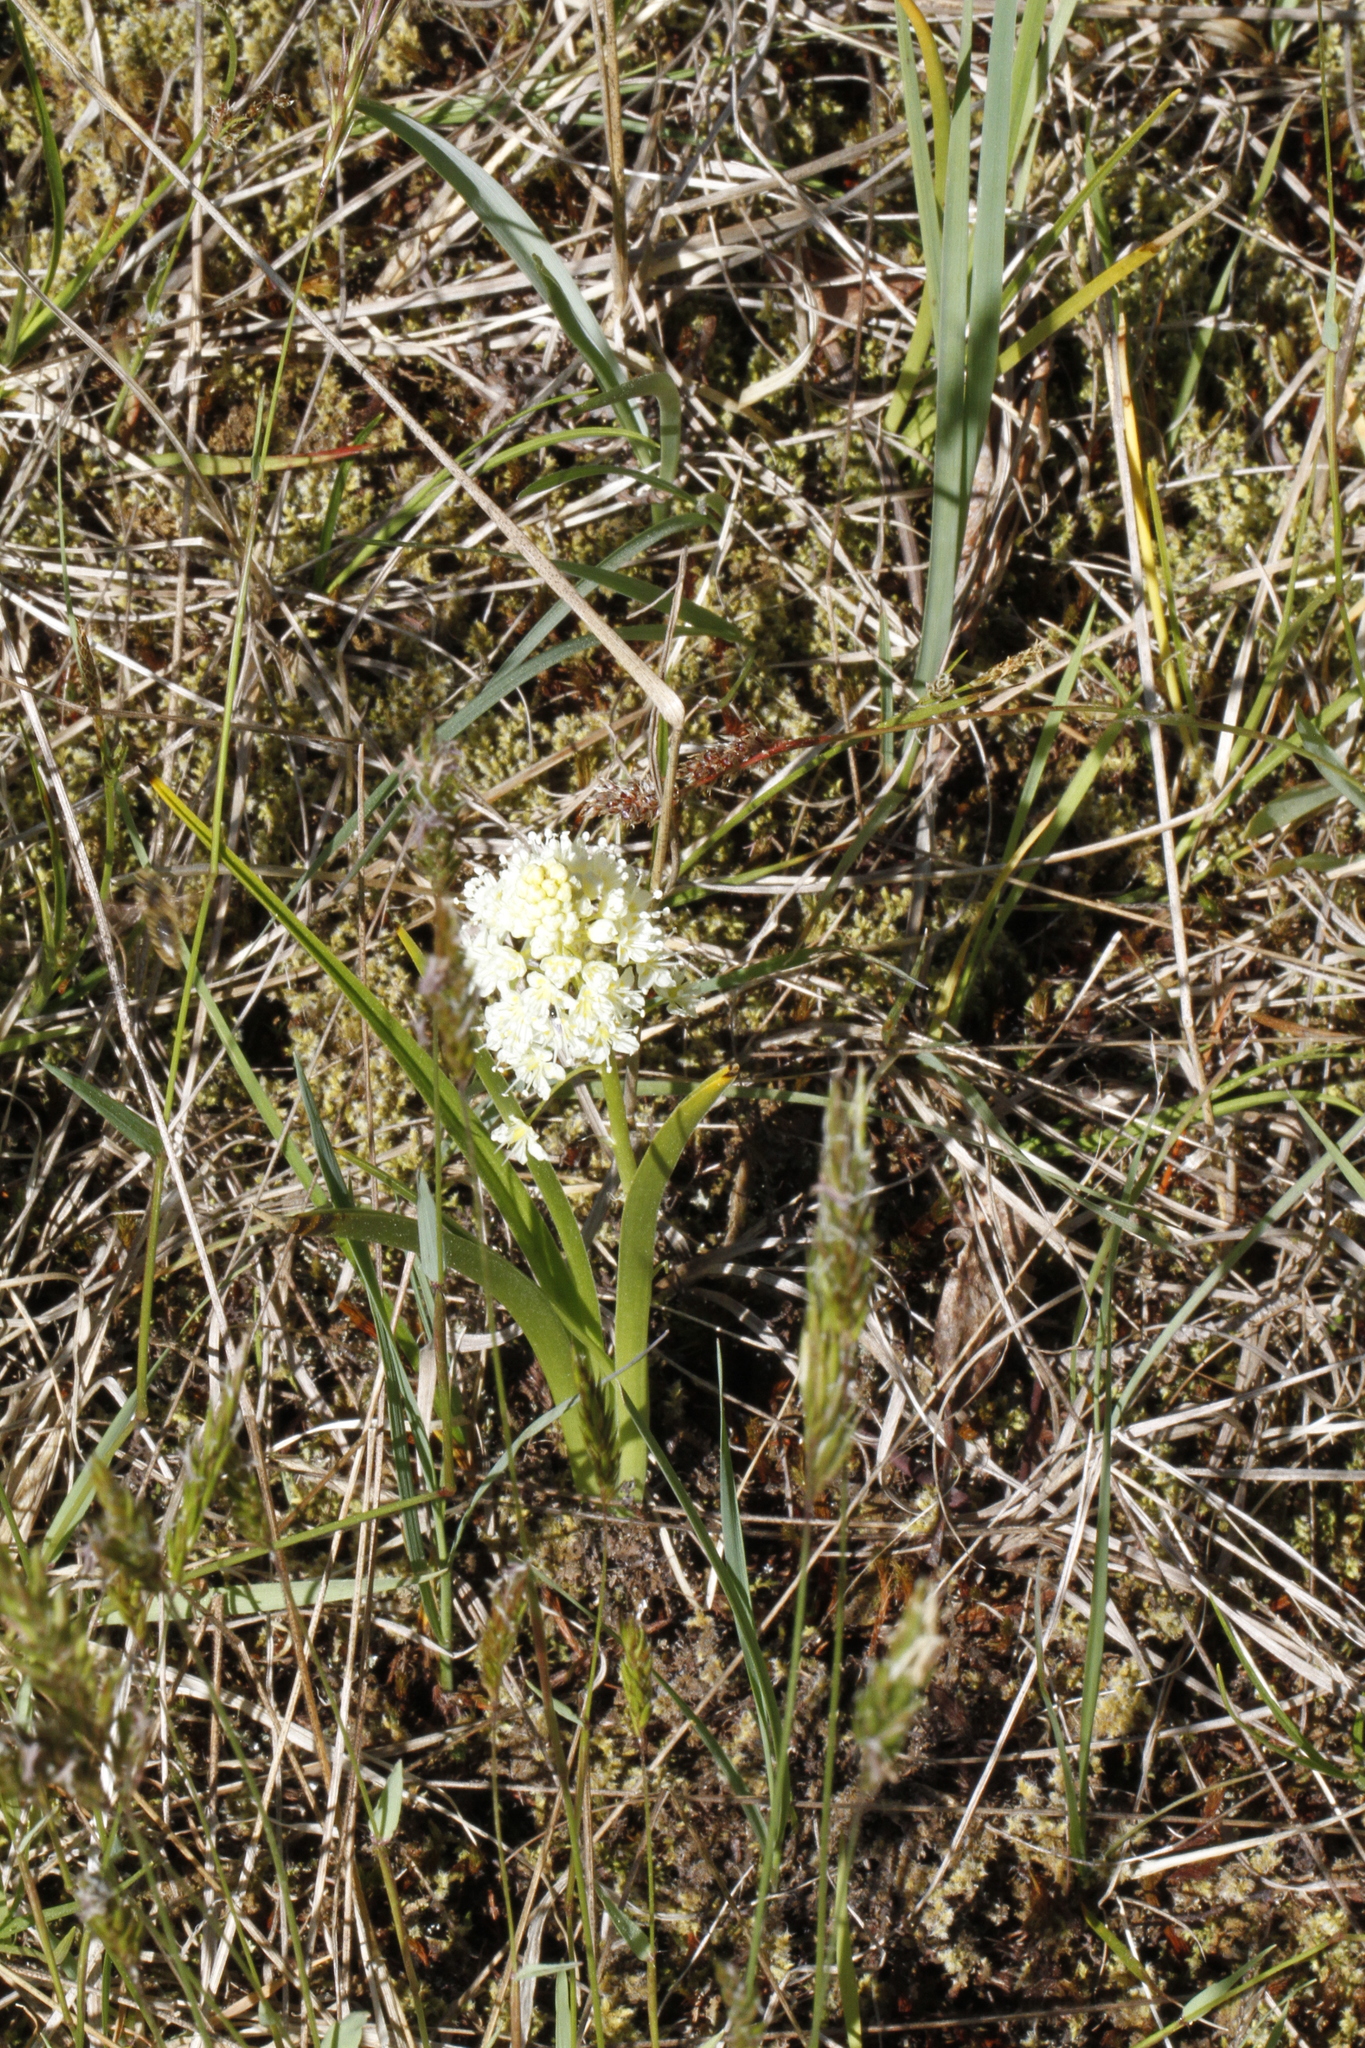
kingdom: Plantae
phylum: Tracheophyta
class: Liliopsida
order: Liliales
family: Melanthiaceae
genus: Toxicoscordion
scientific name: Toxicoscordion venenosum
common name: Meadow death camas
